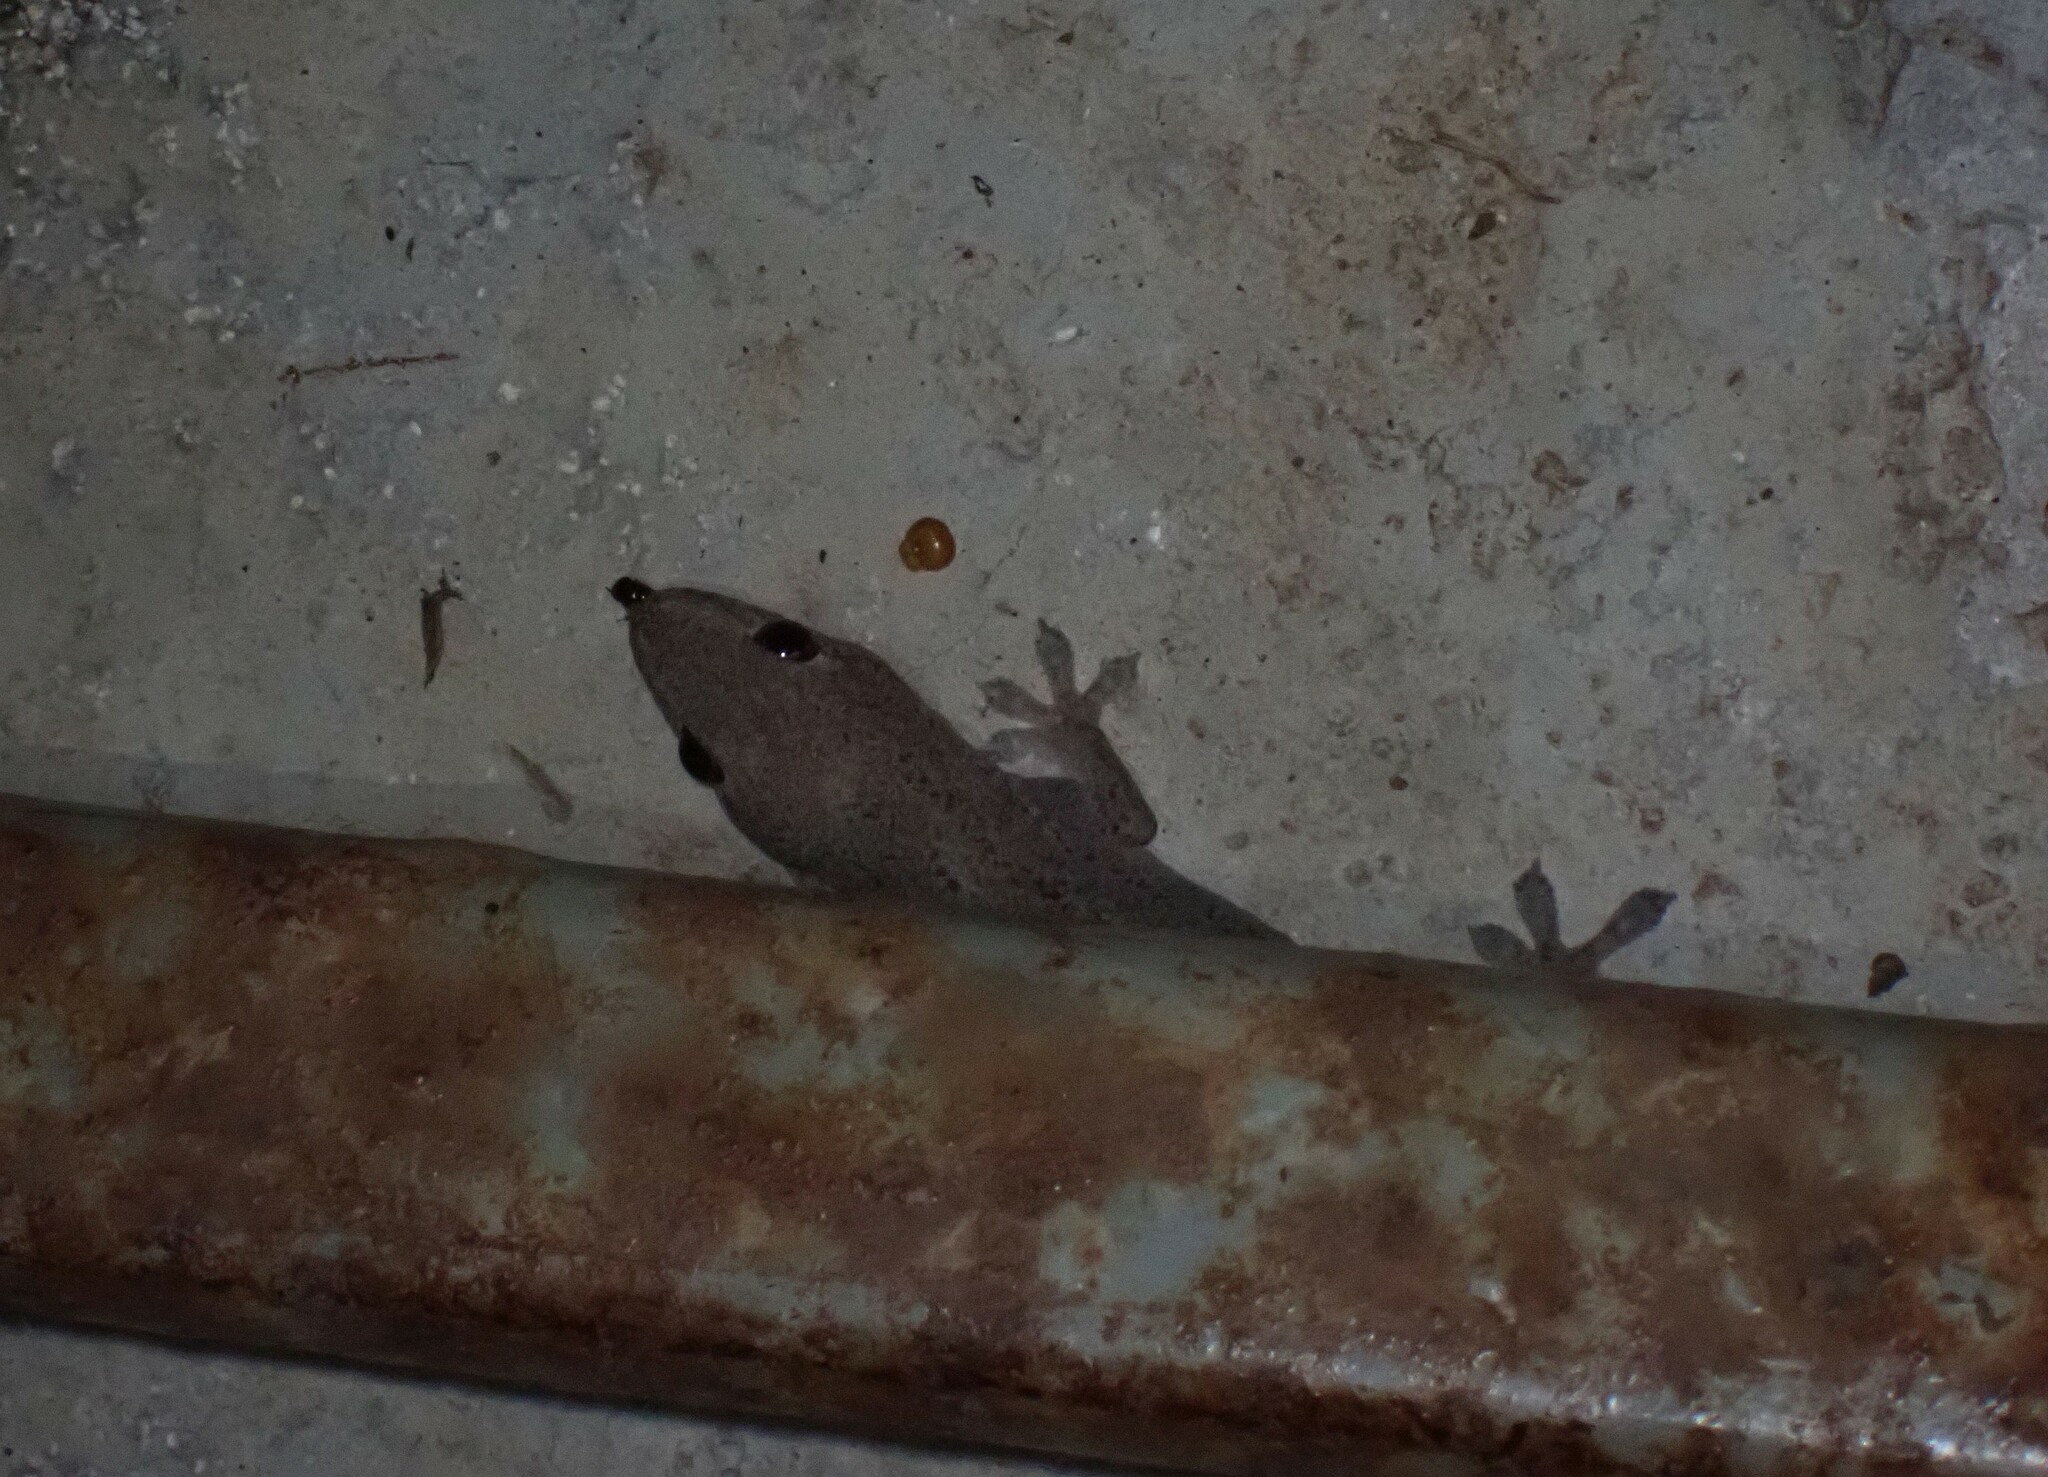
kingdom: Animalia
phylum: Chordata
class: Squamata
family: Gekkonidae
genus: Hemidactylus
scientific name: Hemidactylus frenatus
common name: Common house gecko
